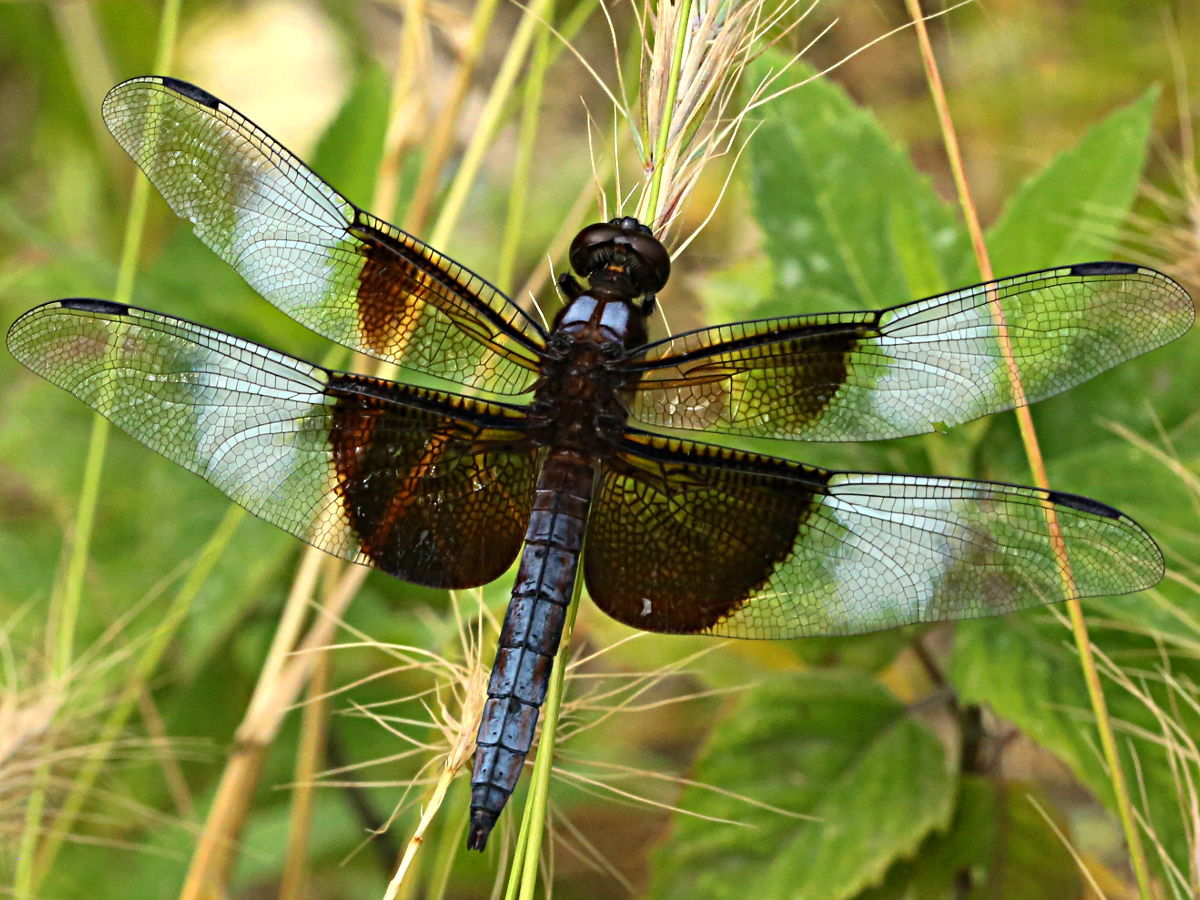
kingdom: Animalia
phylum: Arthropoda
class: Insecta
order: Odonata
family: Libellulidae
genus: Libellula
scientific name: Libellula luctuosa
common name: Widow skimmer
